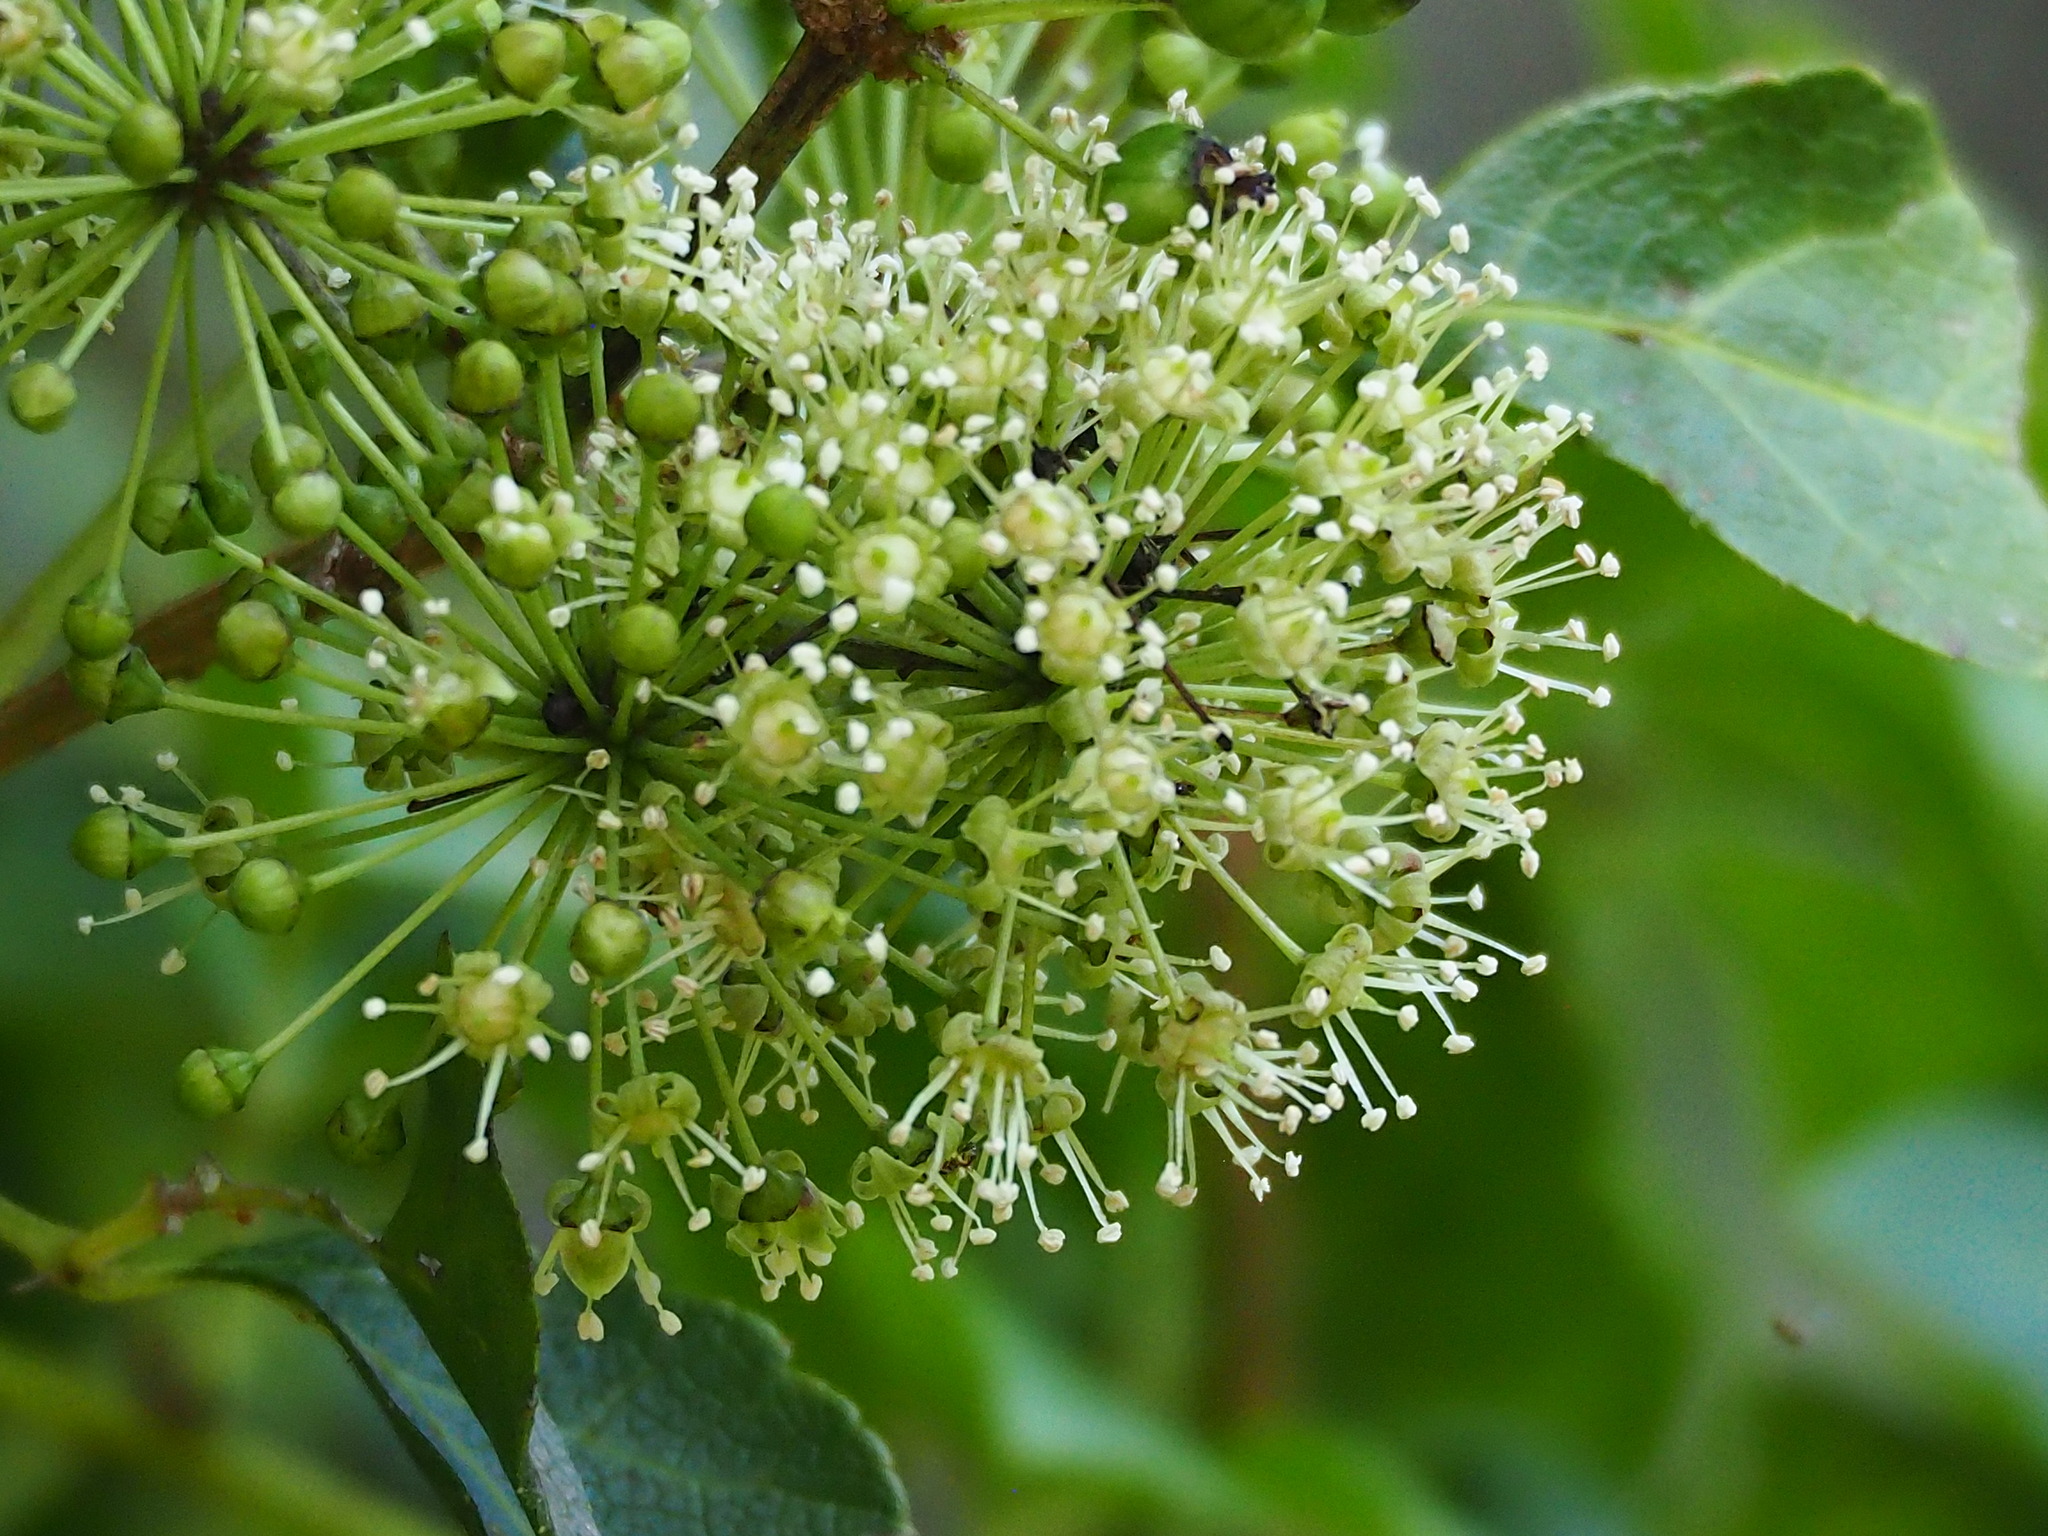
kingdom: Plantae
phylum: Tracheophyta
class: Magnoliopsida
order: Apiales
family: Araliaceae
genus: Eleutherococcus
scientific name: Eleutherococcus trifoliatus
